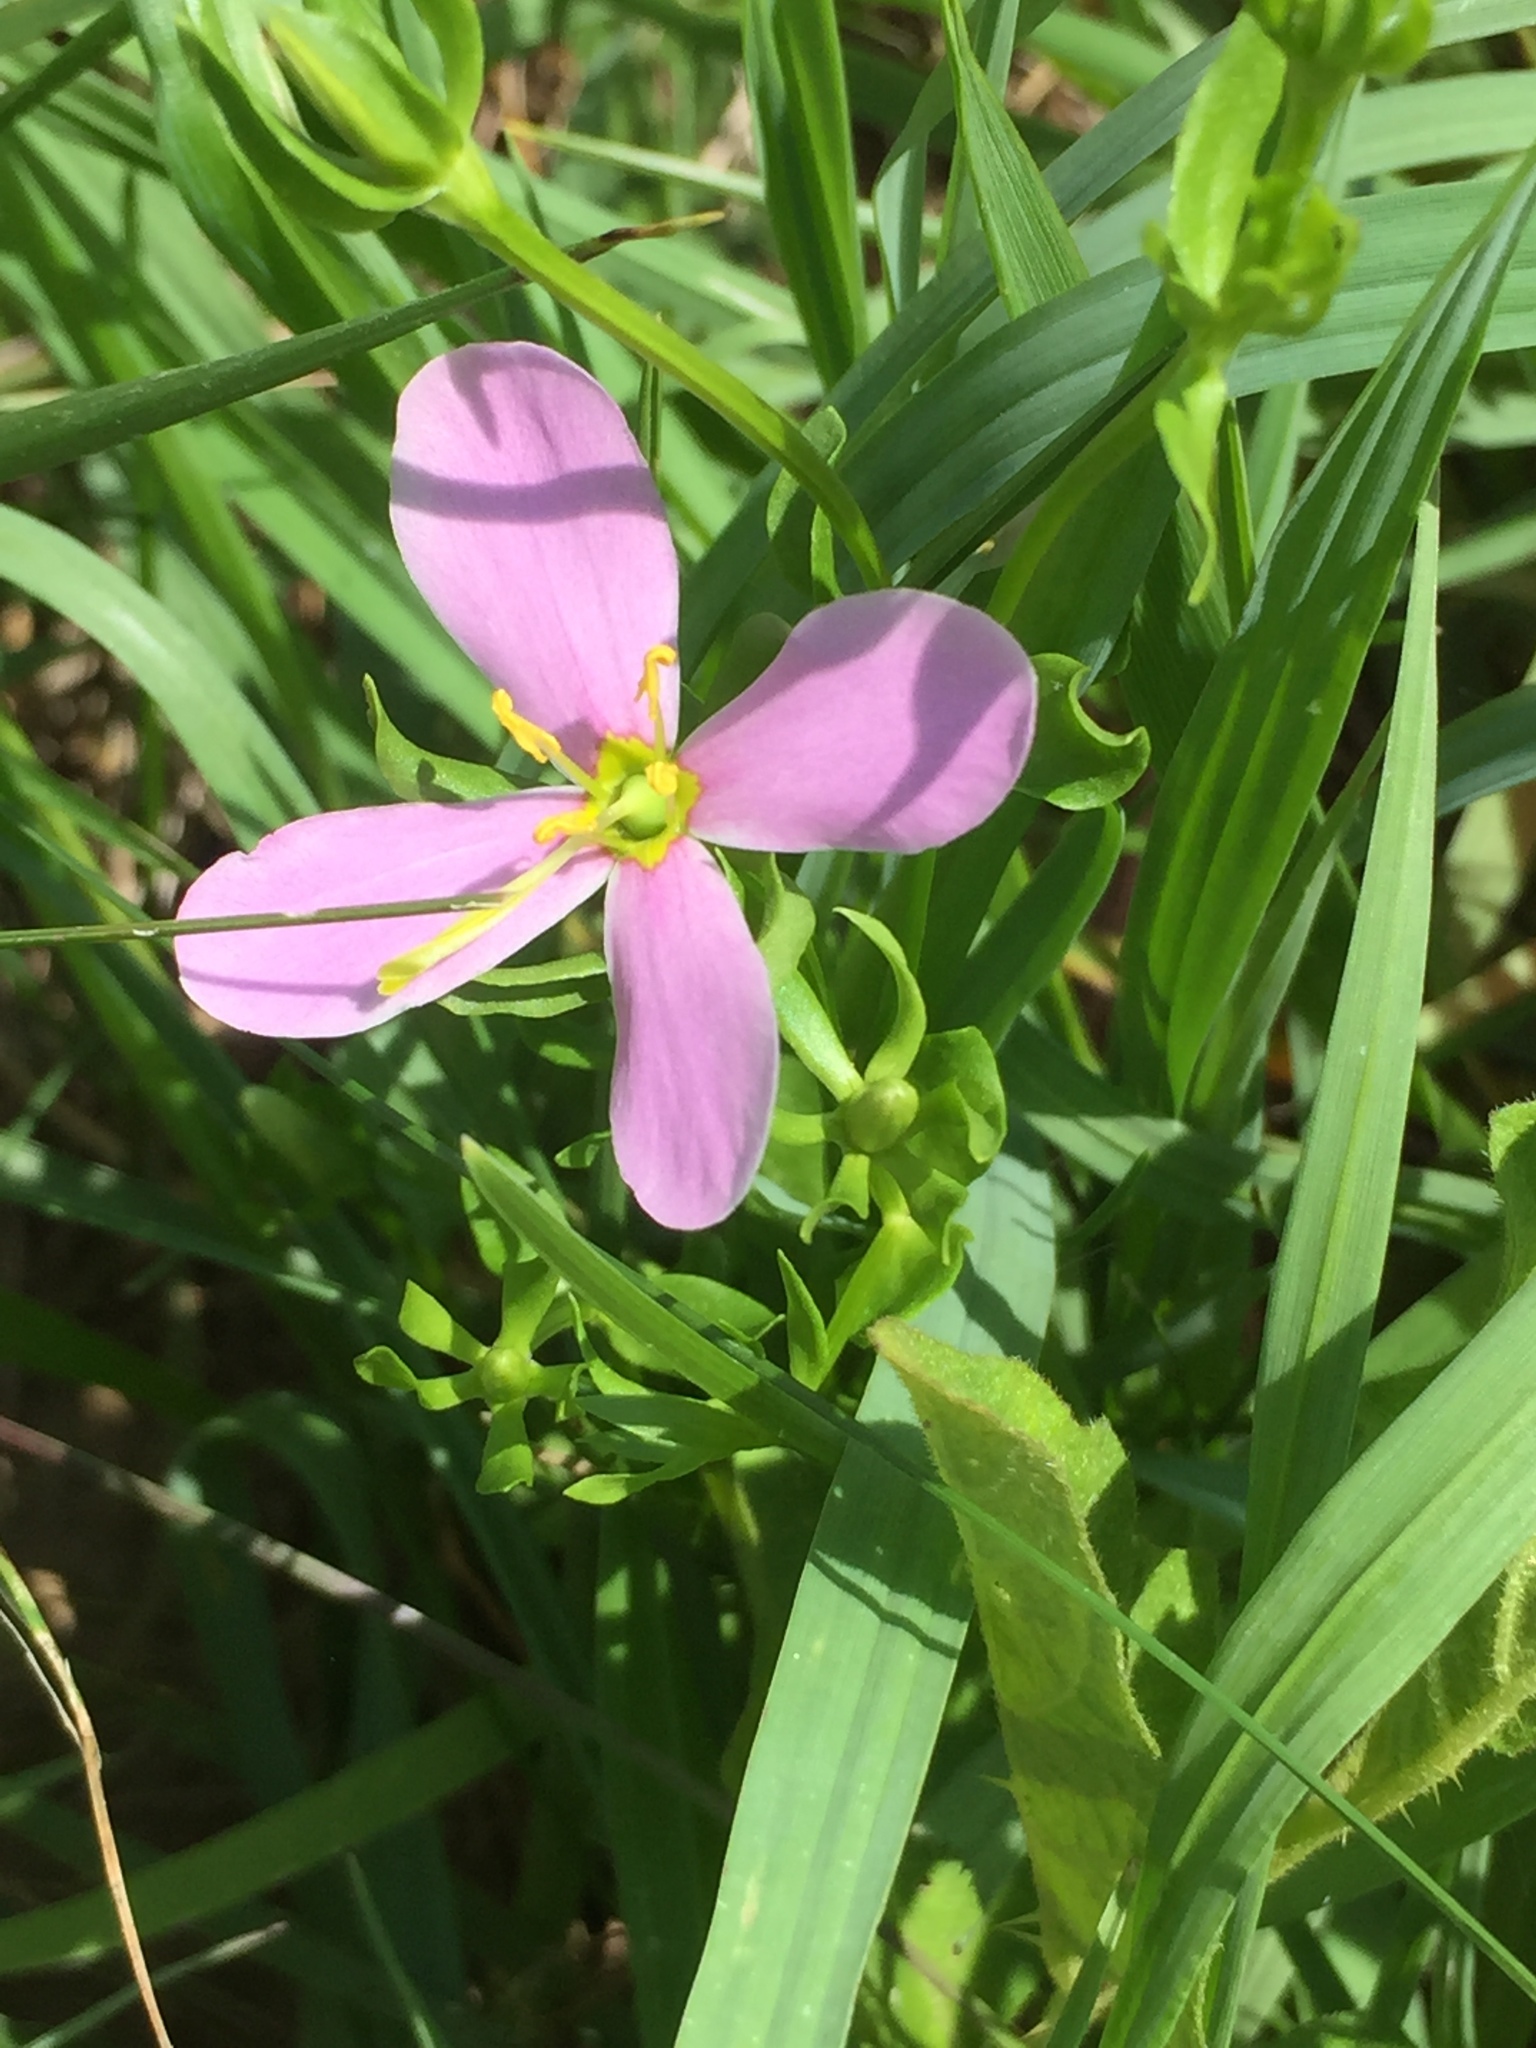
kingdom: Plantae
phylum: Tracheophyta
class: Magnoliopsida
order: Gentianales
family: Gentianaceae
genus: Sabatia
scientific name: Sabatia angularis
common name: Rose-pink
